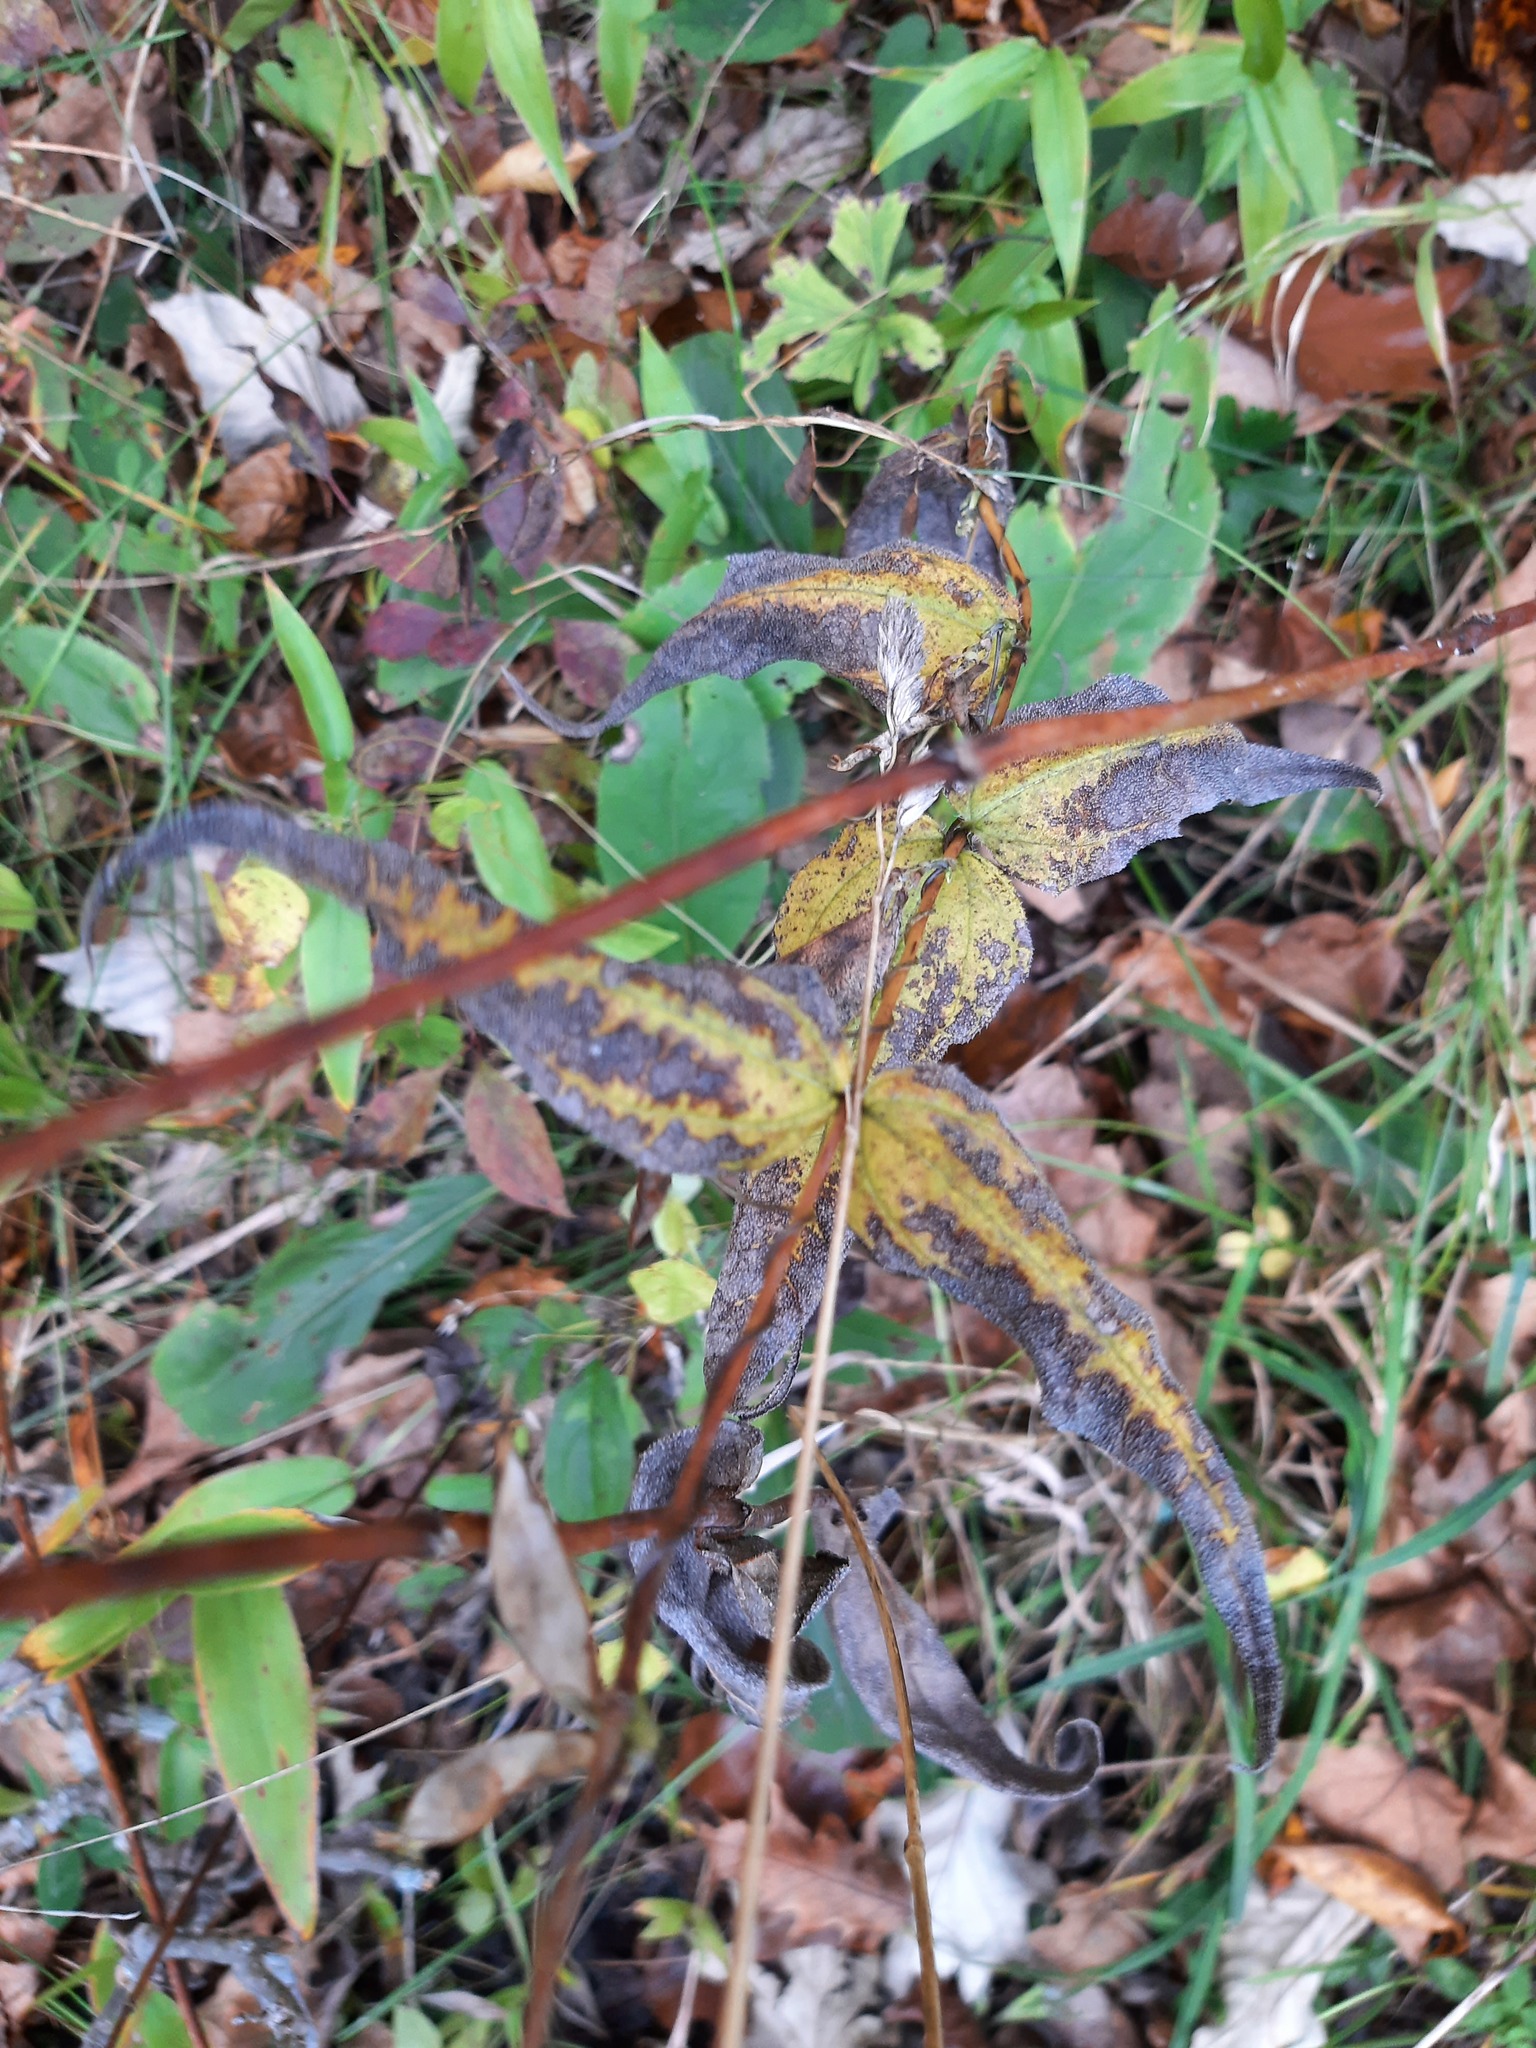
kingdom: Plantae
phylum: Tracheophyta
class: Magnoliopsida
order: Asterales
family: Asteraceae
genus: Helianthus
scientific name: Helianthus divaricatus
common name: Divergent sunflower
